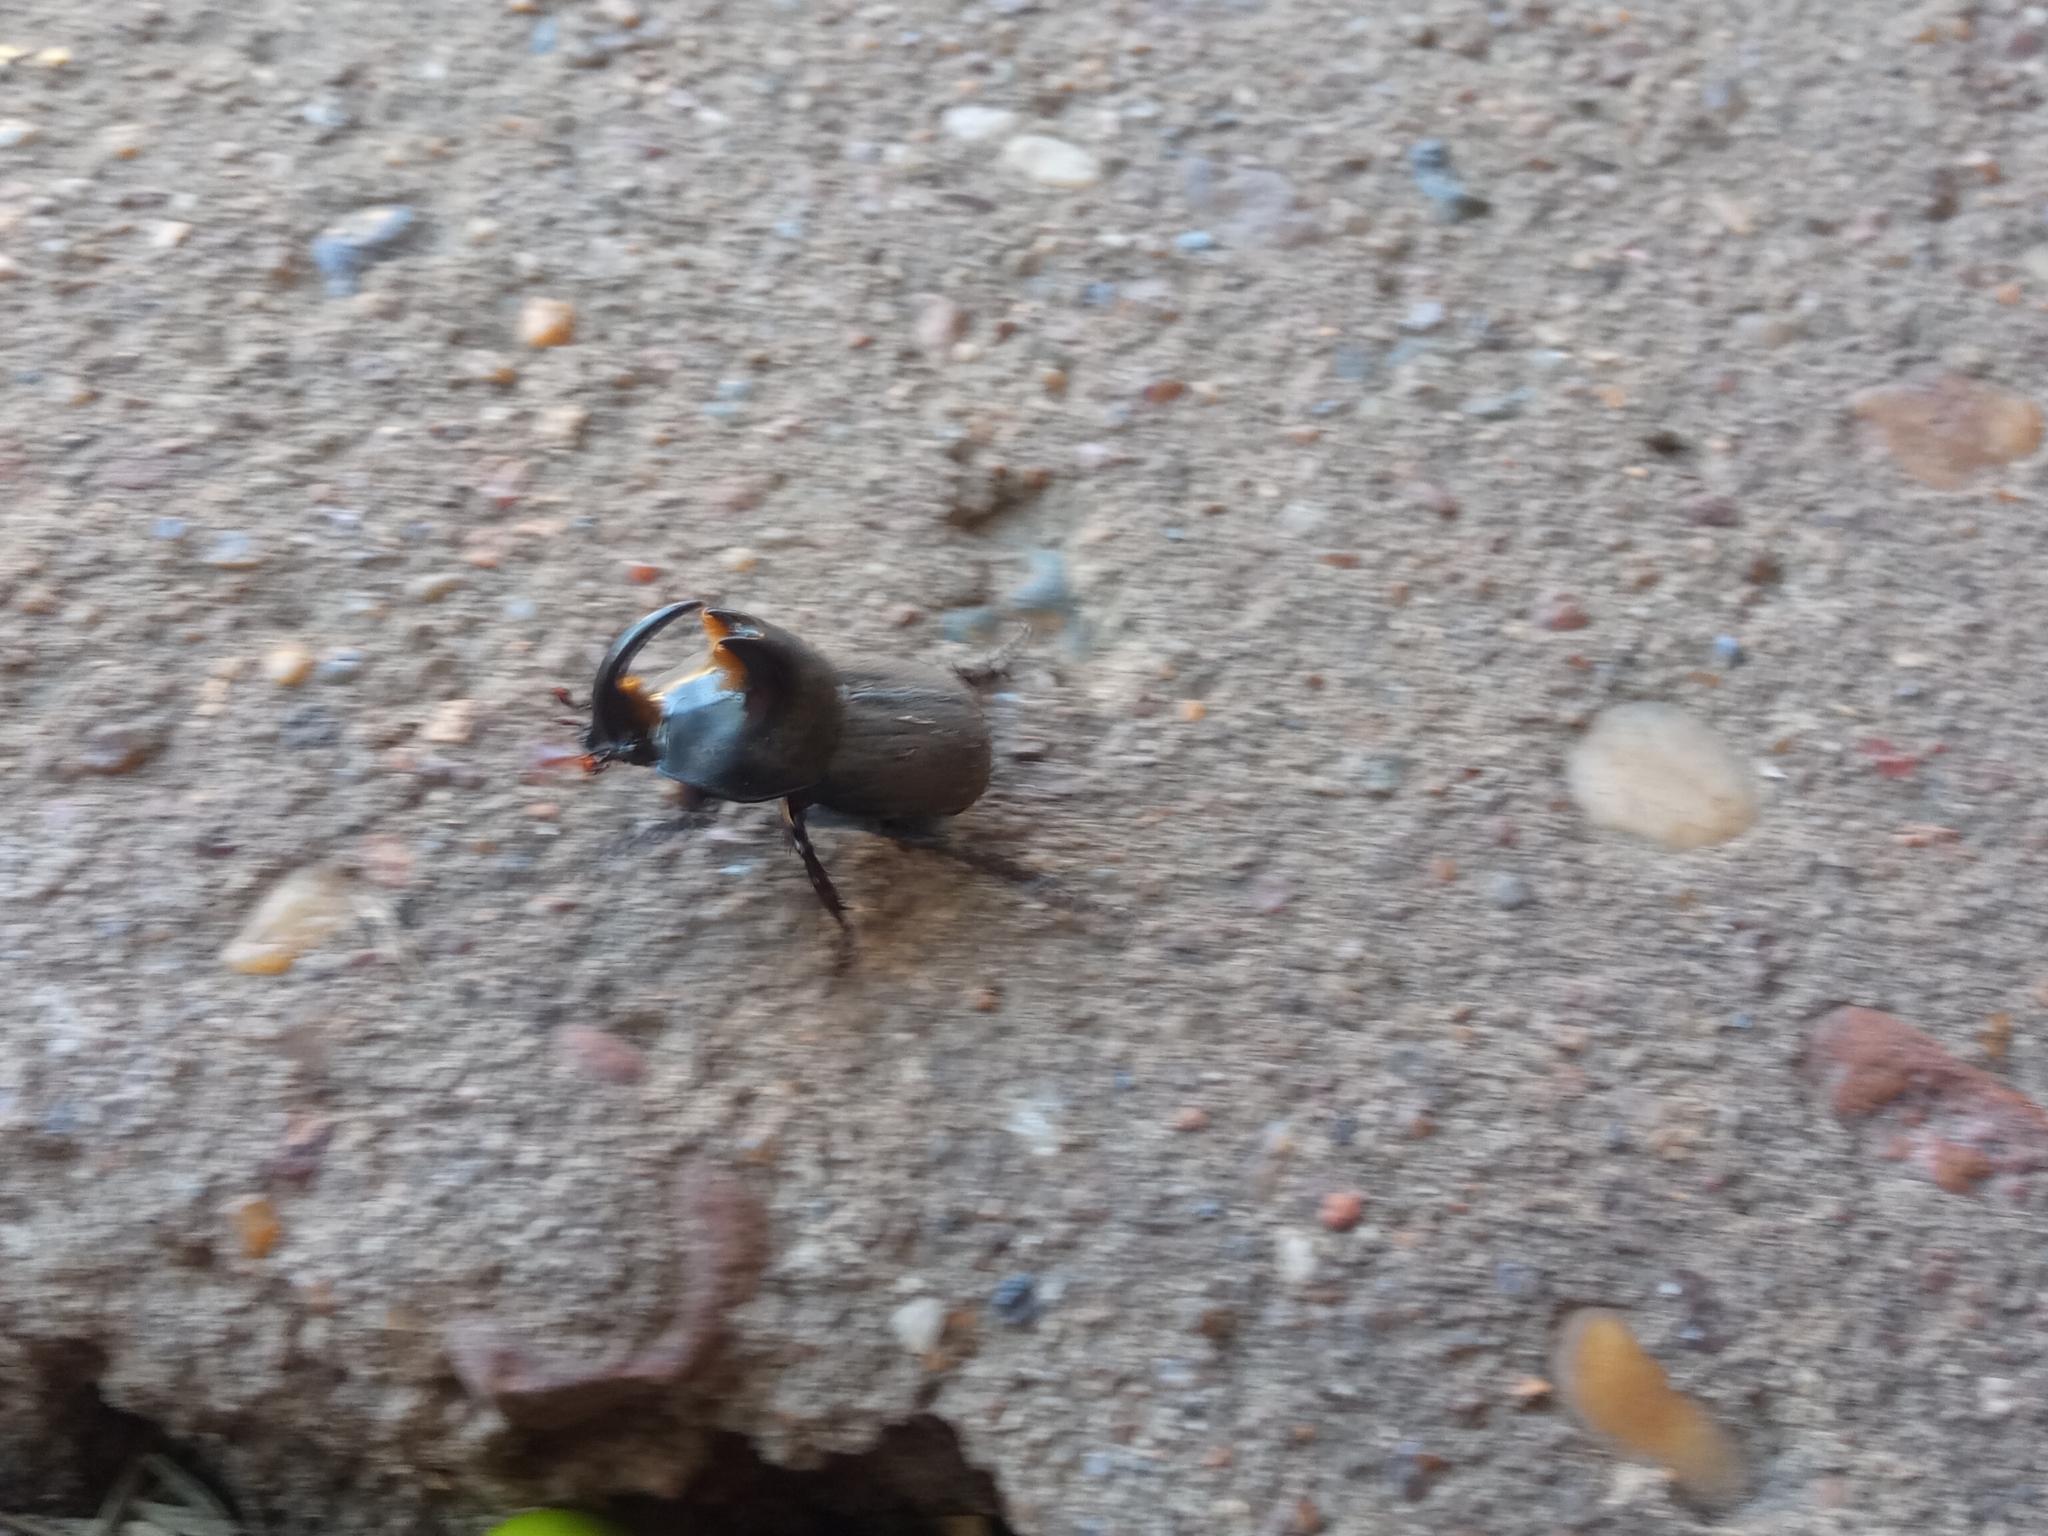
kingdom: Animalia
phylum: Arthropoda
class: Insecta
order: Coleoptera
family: Scarabaeidae
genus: Diloboderus
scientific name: Diloboderus abderus
